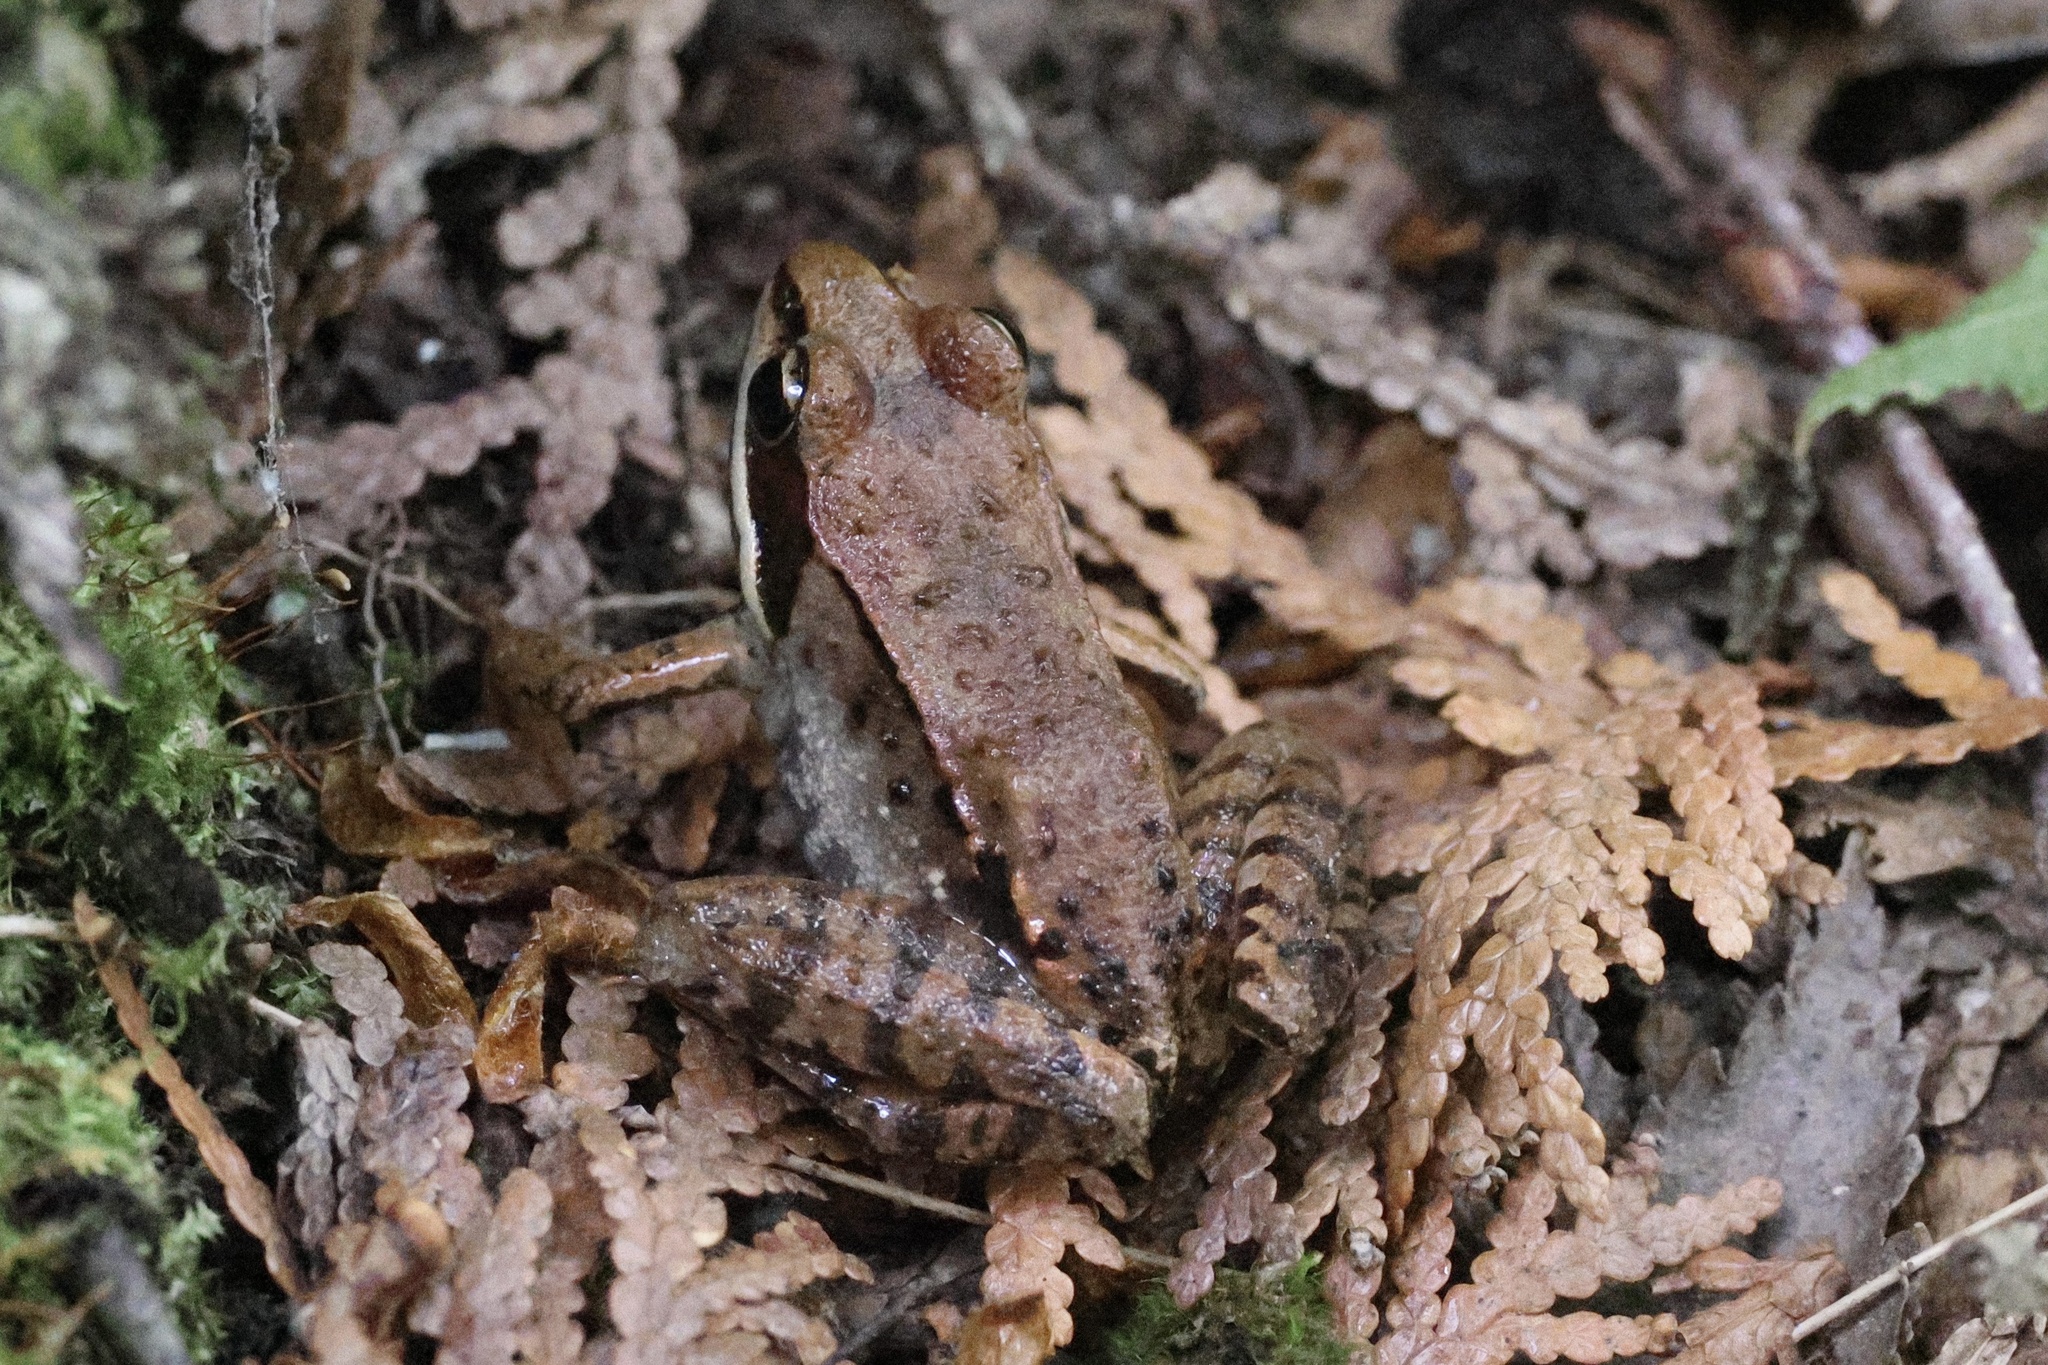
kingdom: Animalia
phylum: Chordata
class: Amphibia
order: Anura
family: Ranidae
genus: Lithobates
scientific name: Lithobates sylvaticus
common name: Wood frog
